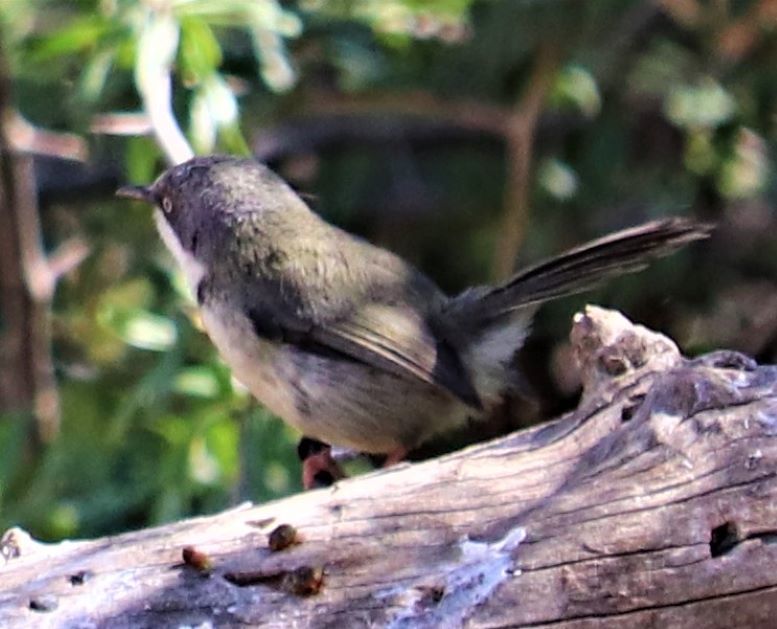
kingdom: Animalia
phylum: Chordata
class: Aves
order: Passeriformes
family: Cisticolidae
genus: Apalis
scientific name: Apalis thoracica
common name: Bar-throated apalis
